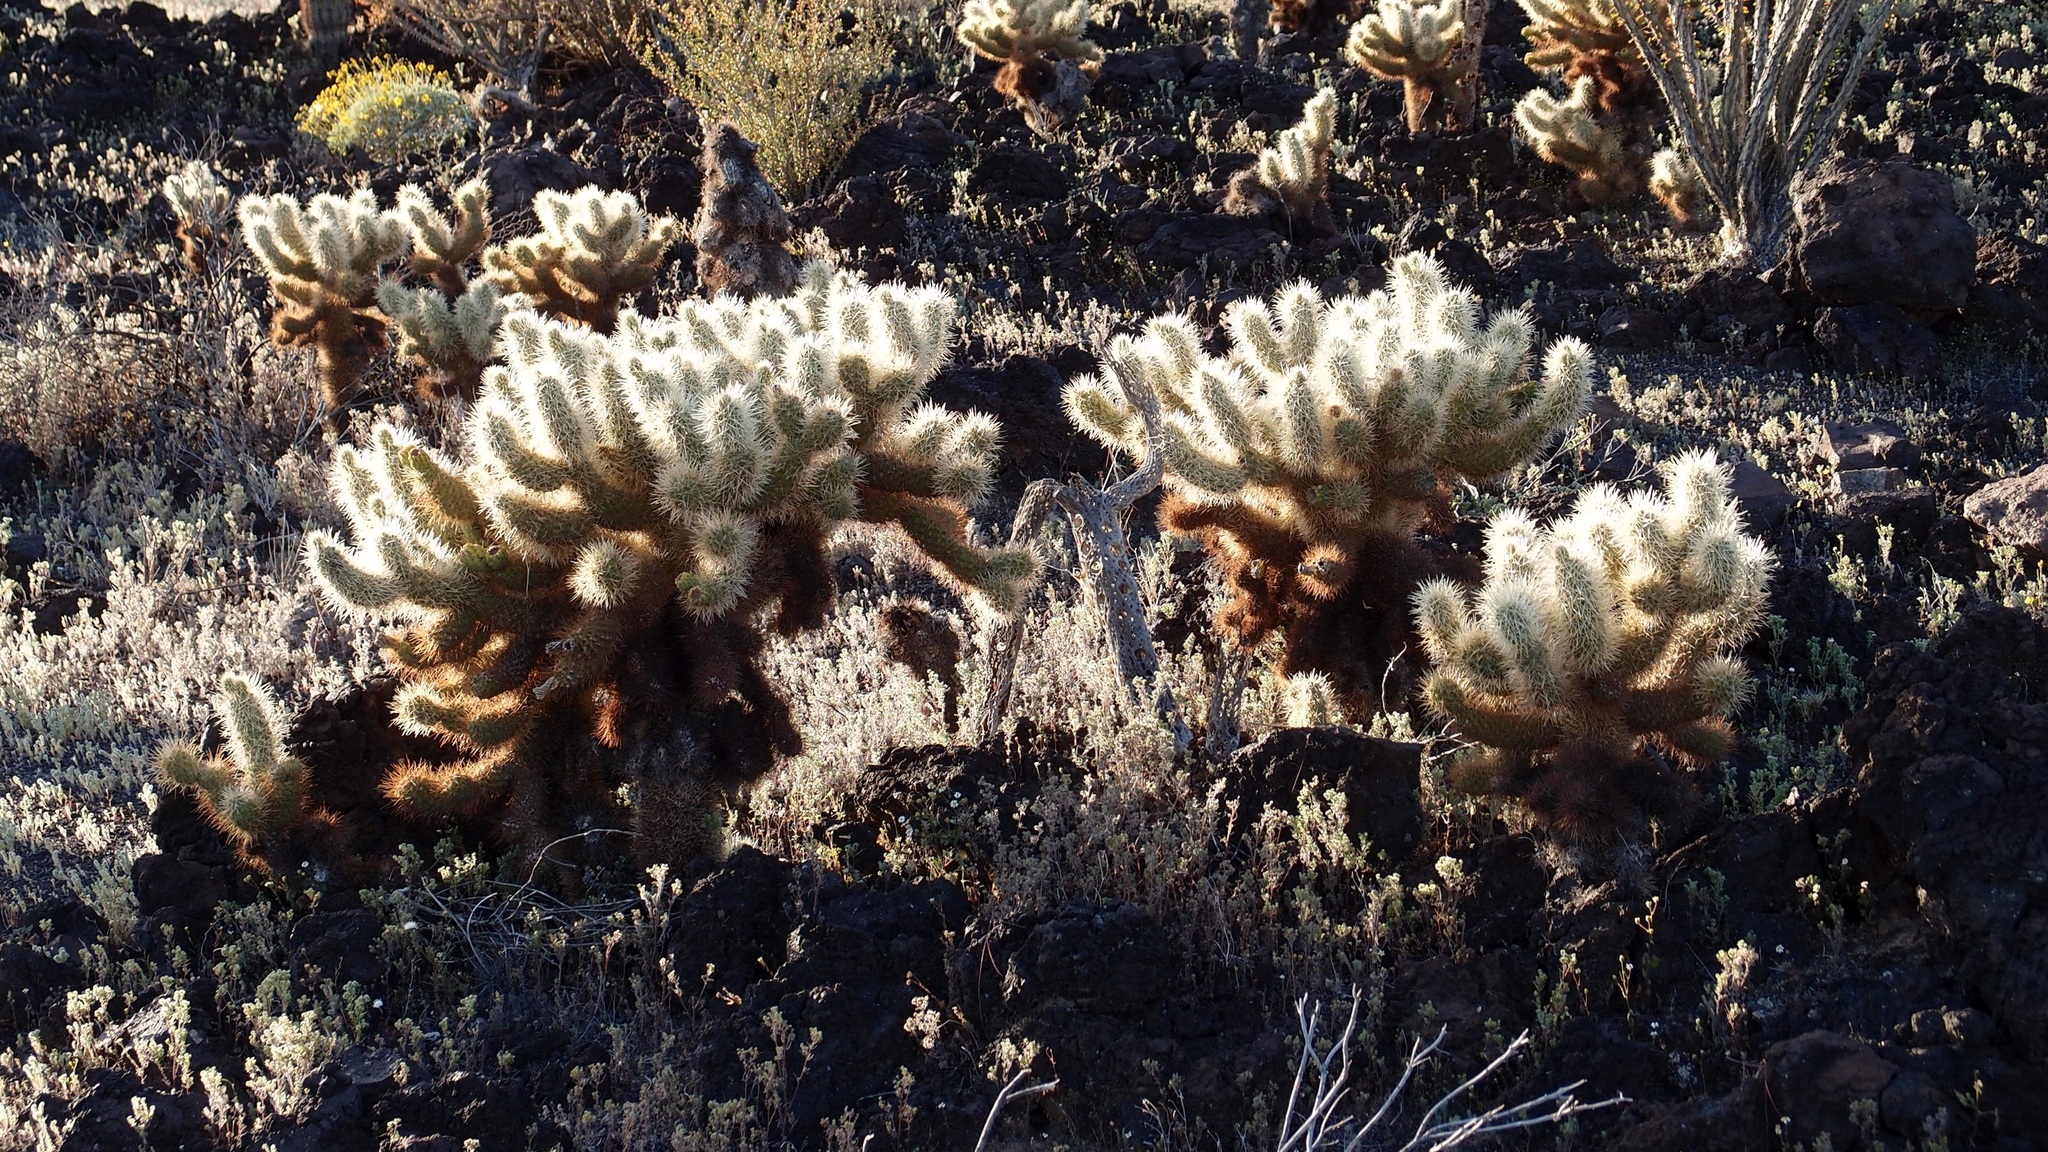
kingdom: Plantae
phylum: Tracheophyta
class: Magnoliopsida
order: Caryophyllales
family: Cactaceae
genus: Cylindropuntia
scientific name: Cylindropuntia fosbergii
